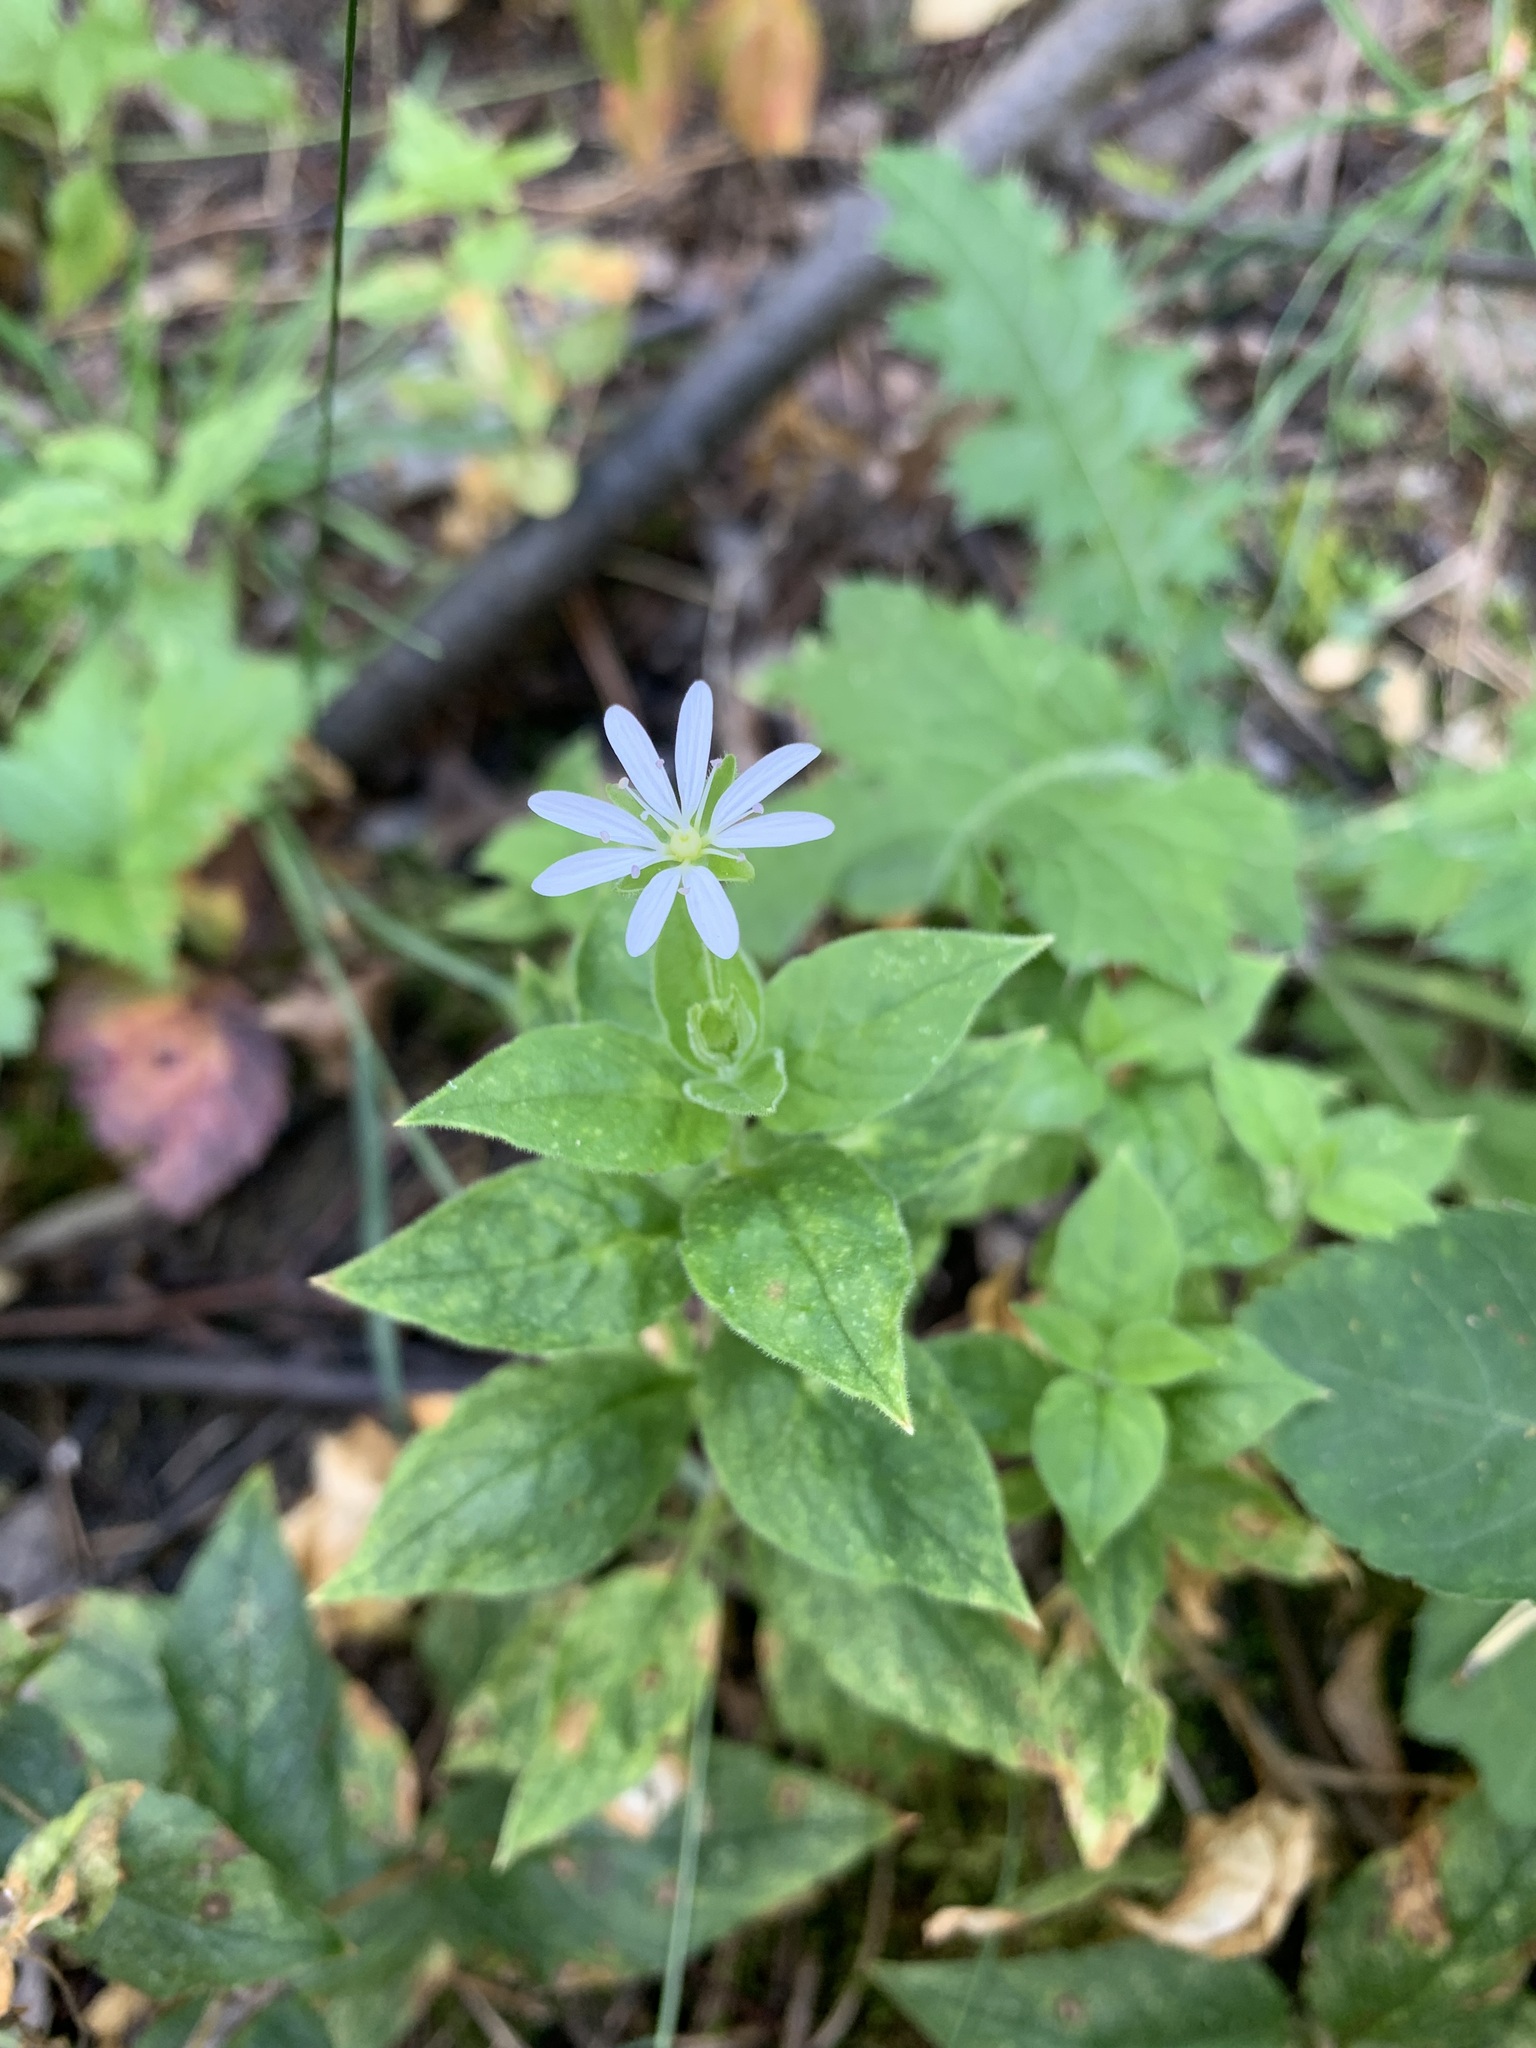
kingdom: Plantae
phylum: Tracheophyta
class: Magnoliopsida
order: Caryophyllales
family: Caryophyllaceae
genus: Stellaria
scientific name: Stellaria bungeana
